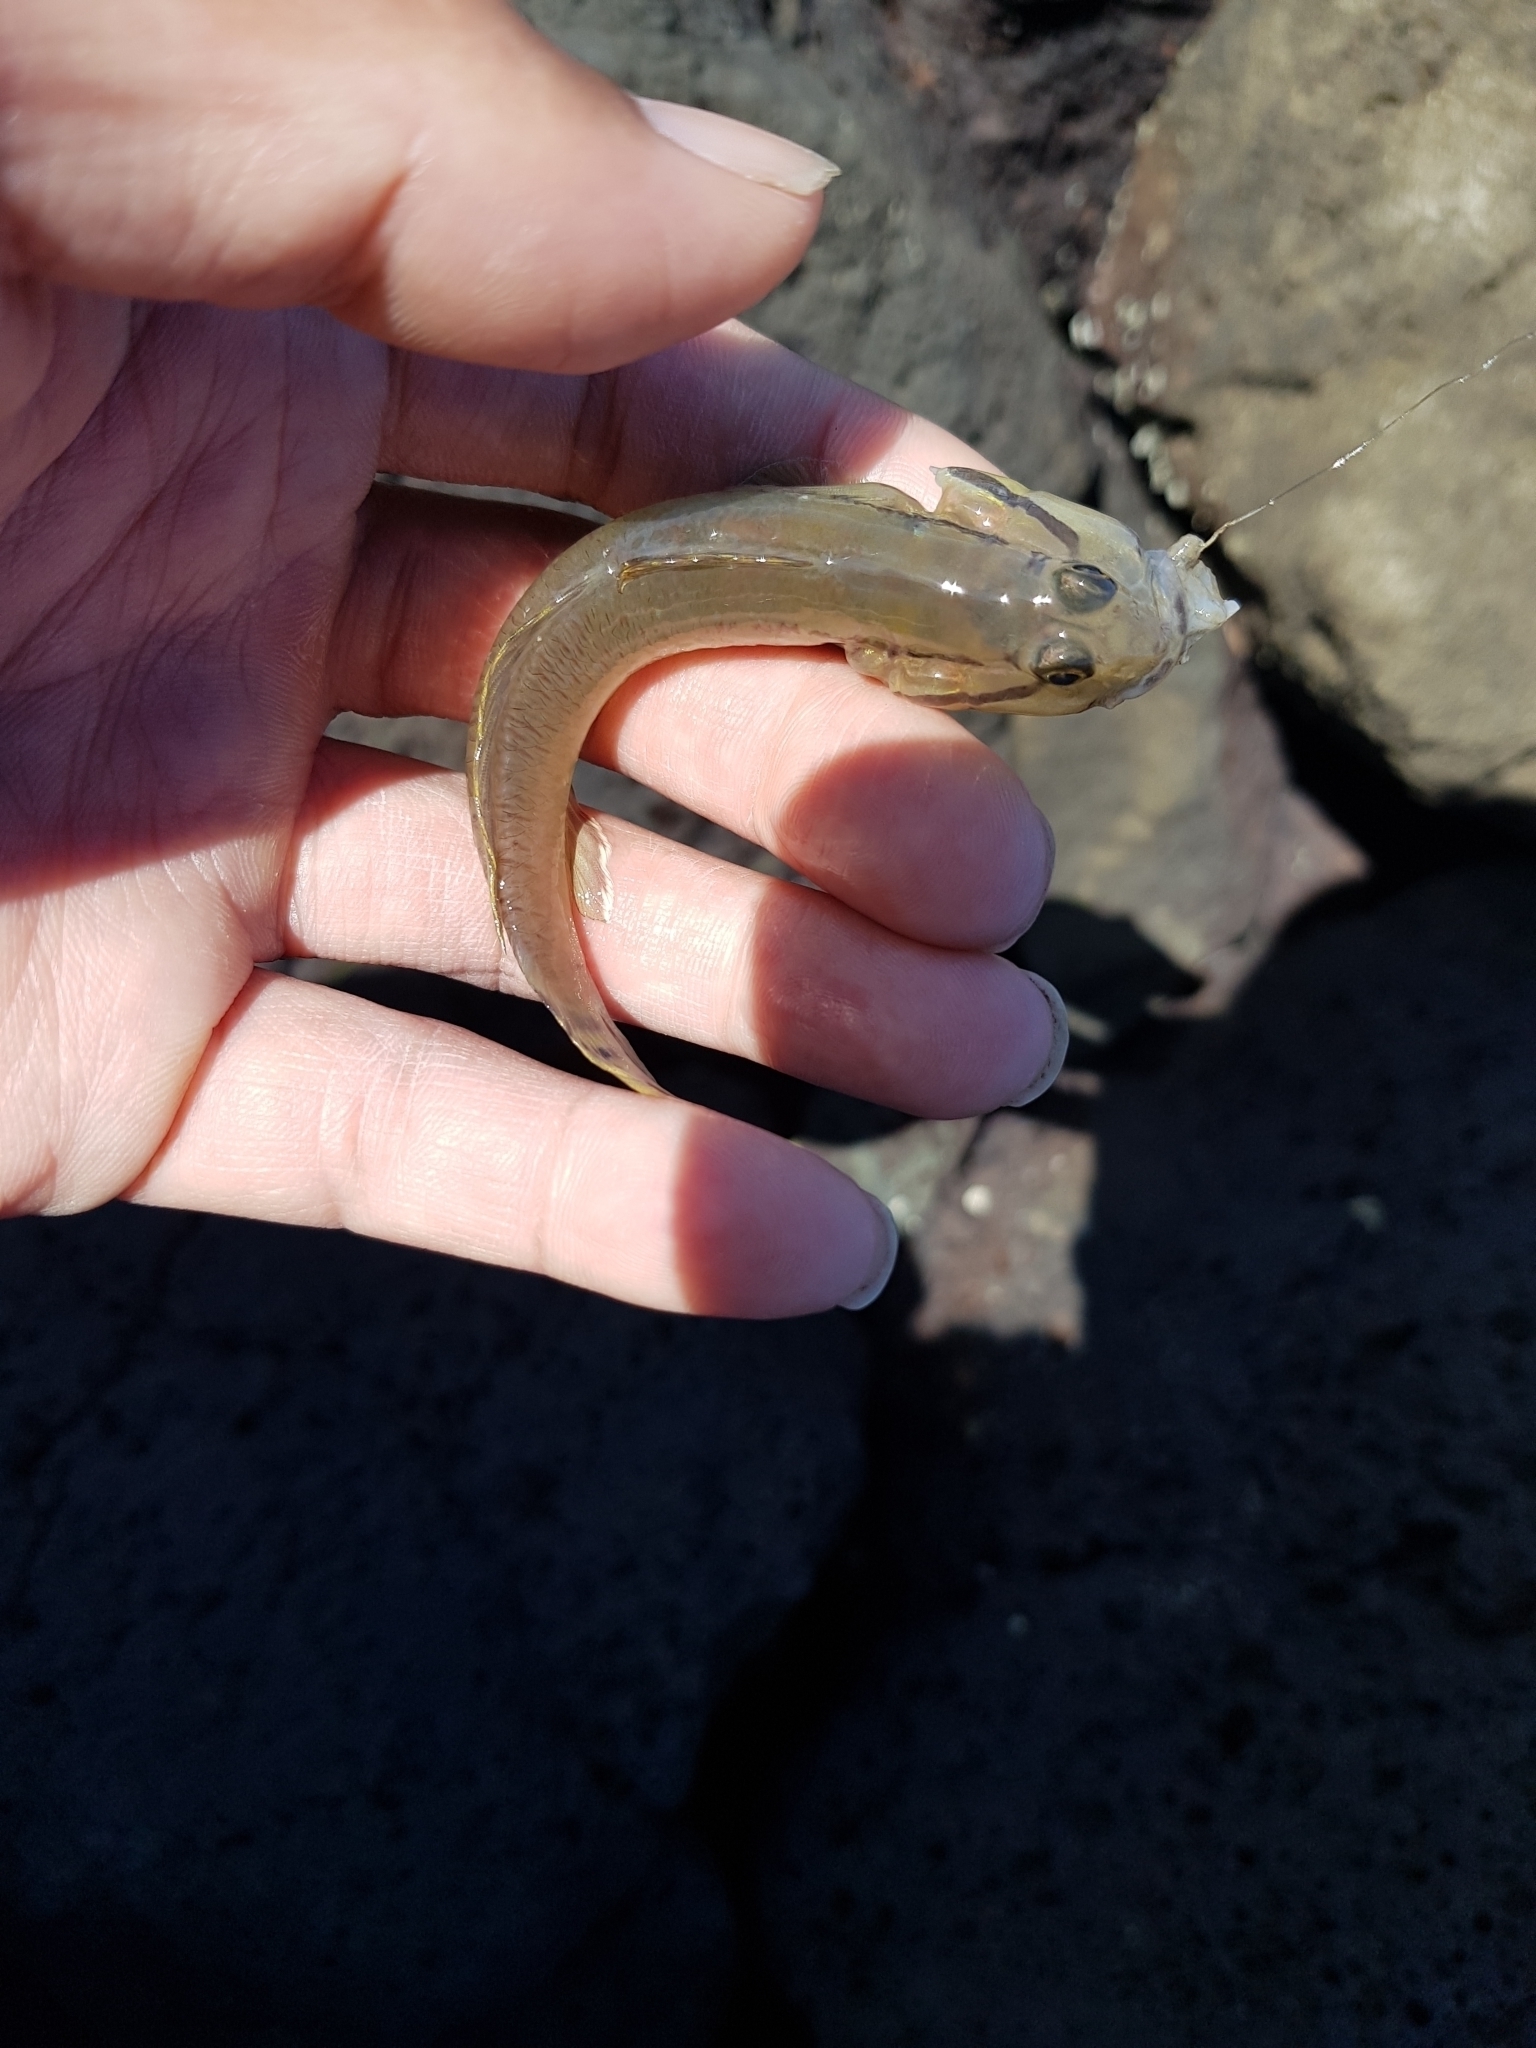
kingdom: Animalia
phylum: Chordata
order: Perciformes
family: Gobiidae
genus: Arenigobius
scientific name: Arenigobius bifrenatus
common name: Bridled goby
